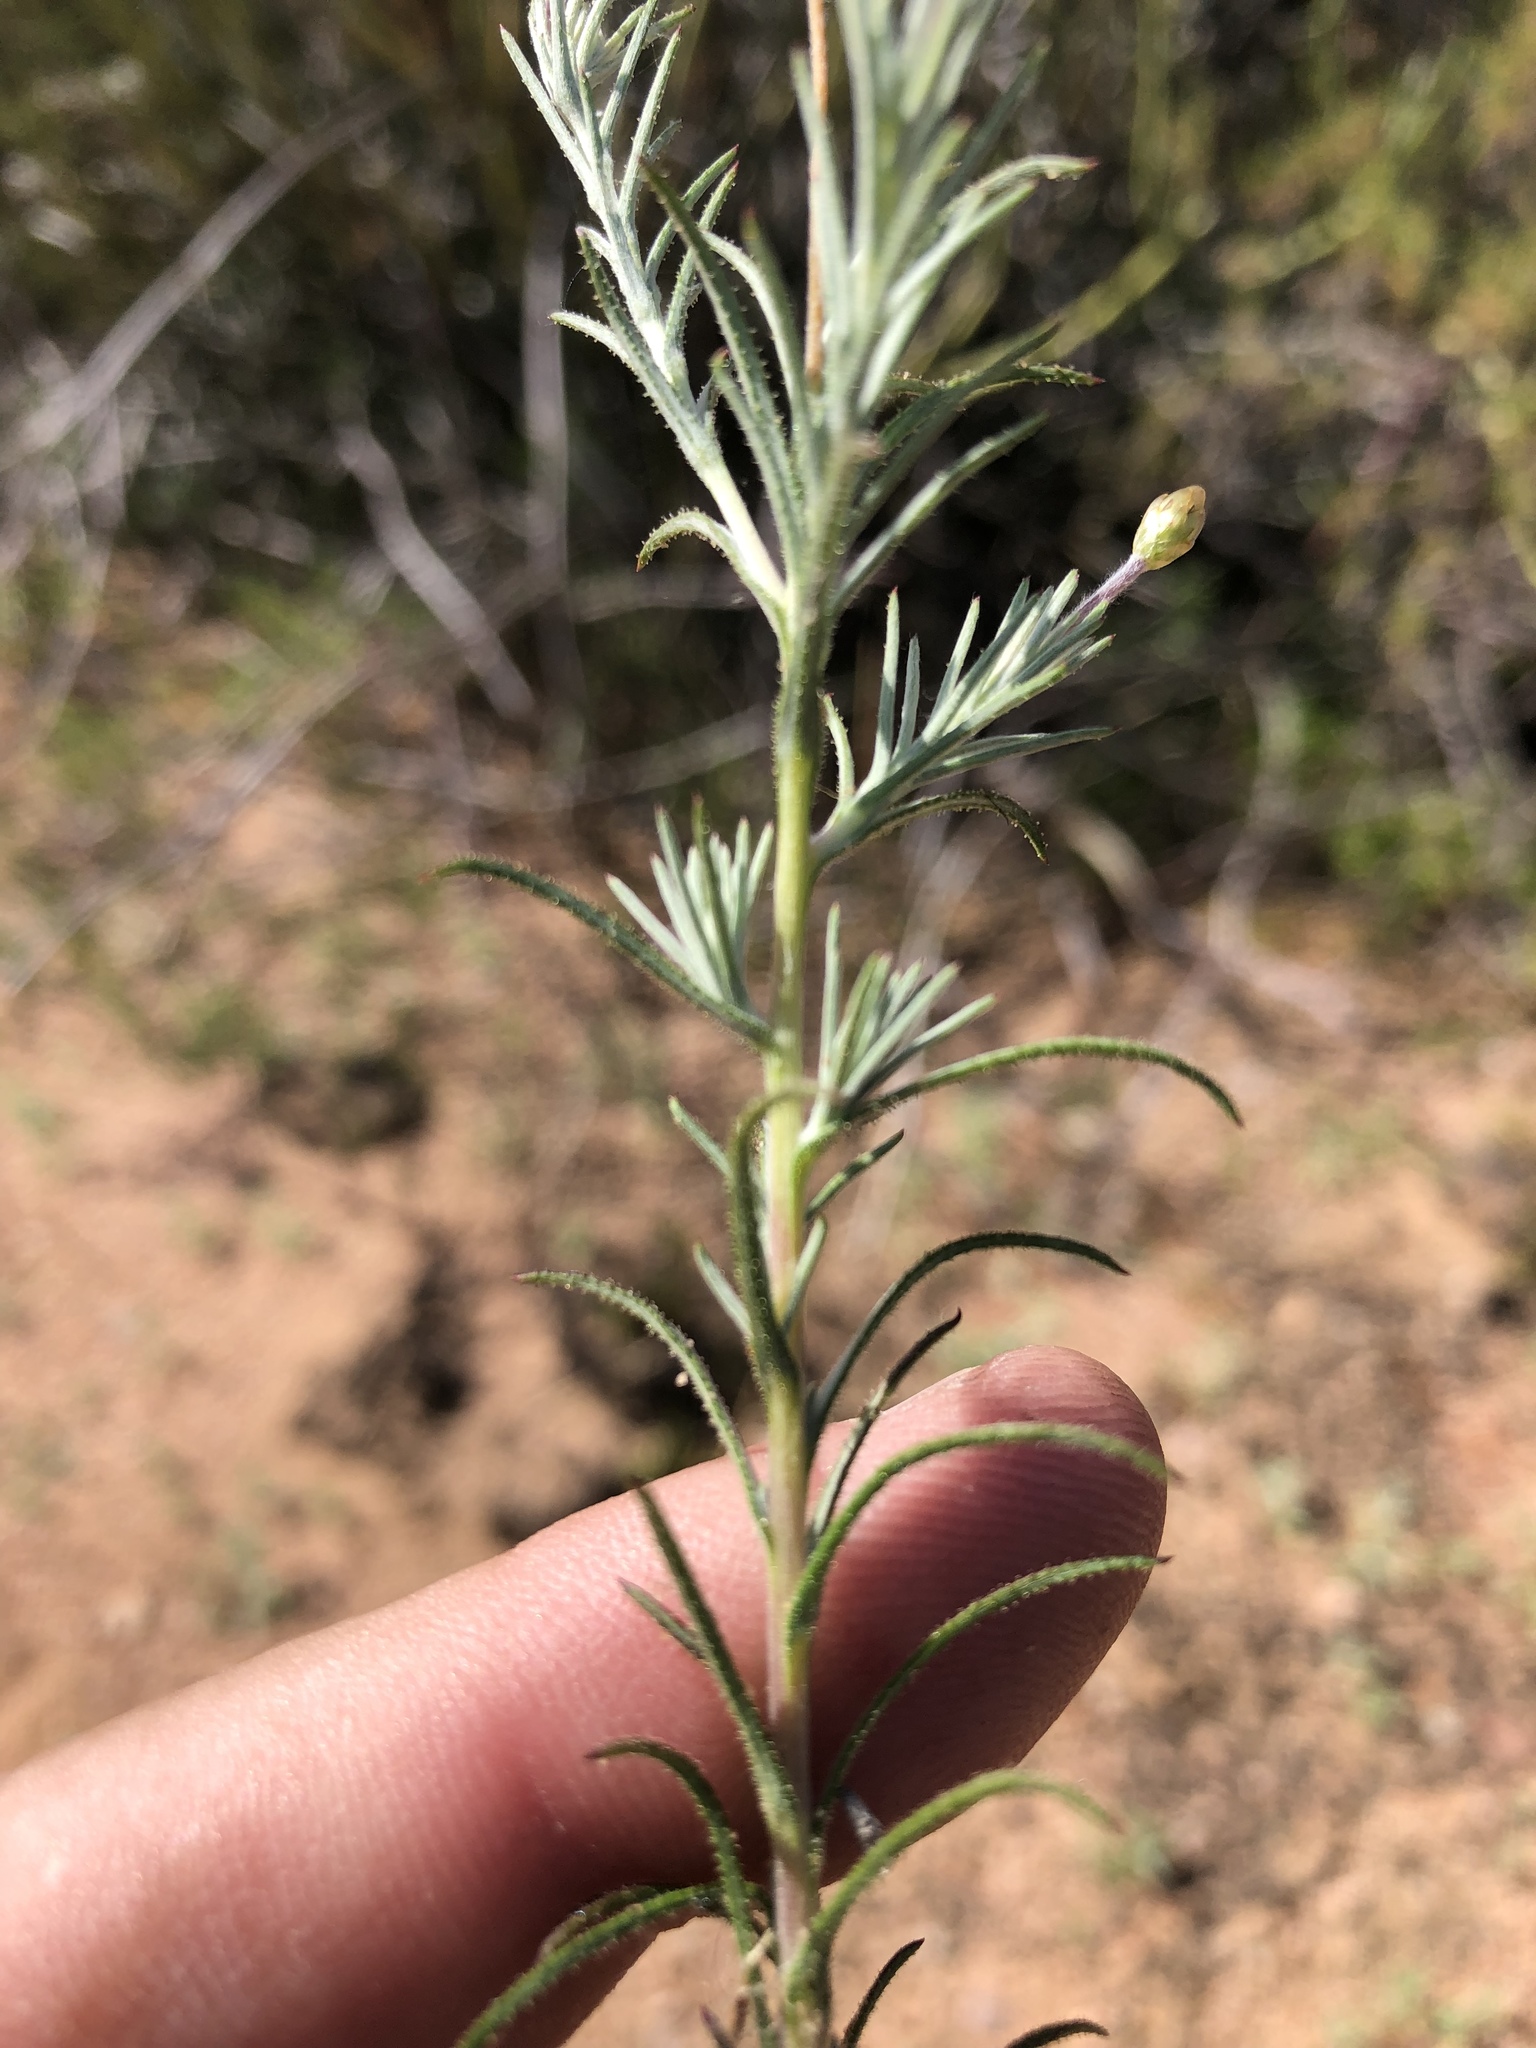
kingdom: Plantae
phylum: Tracheophyta
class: Magnoliopsida
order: Asterales
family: Asteraceae
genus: Leysera
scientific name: Leysera tenella
